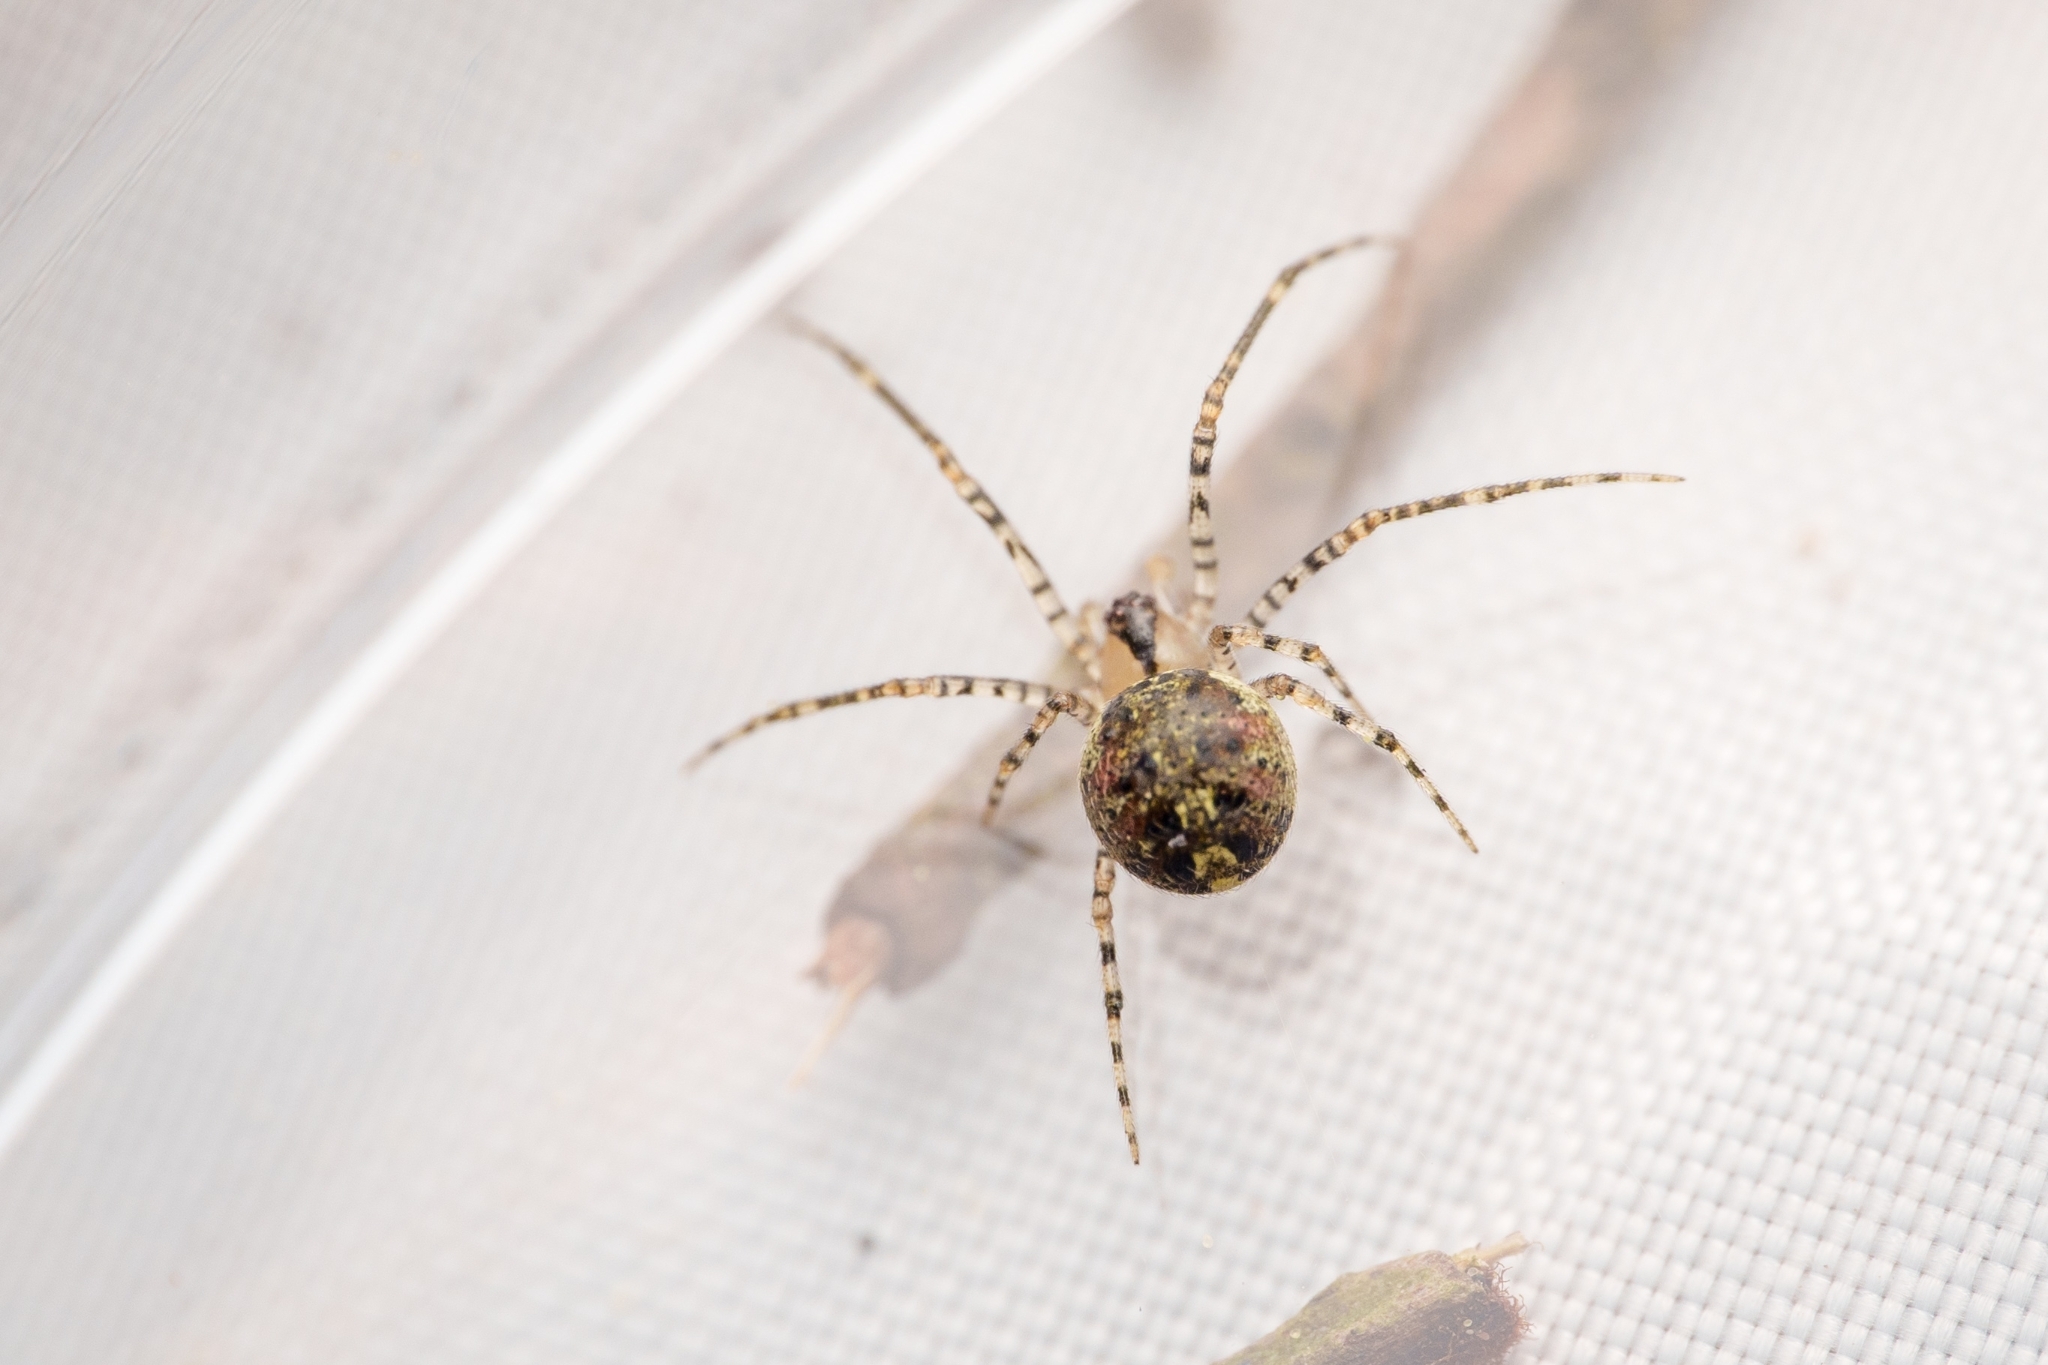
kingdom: Animalia
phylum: Arthropoda
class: Arachnida
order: Araneae
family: Theridiidae
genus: Platnickina
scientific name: Platnickina tincta
